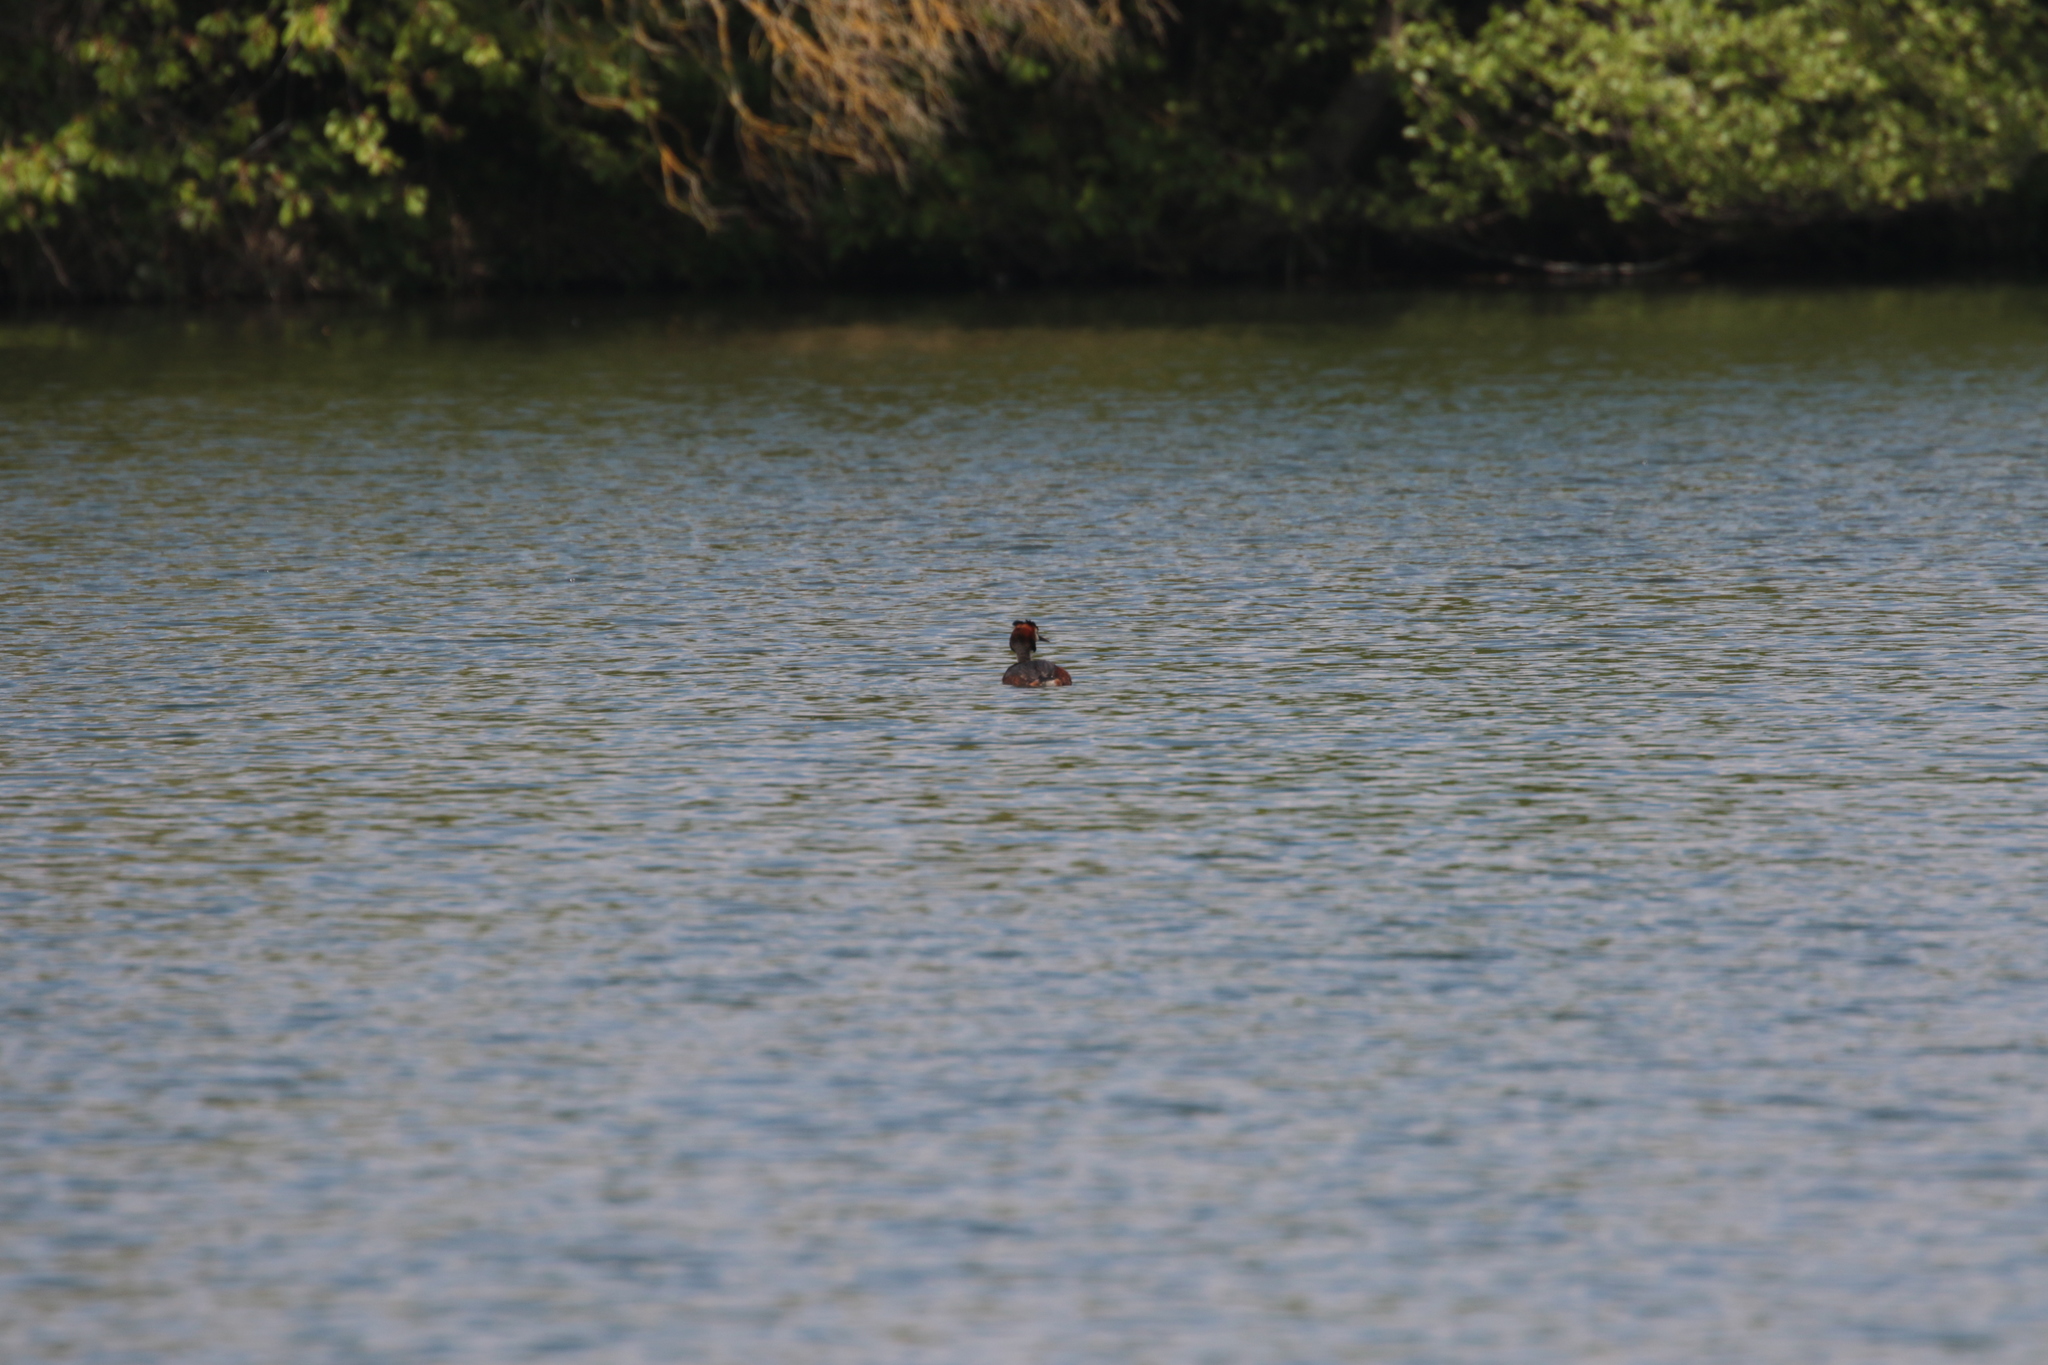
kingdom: Animalia
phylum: Chordata
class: Aves
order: Podicipediformes
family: Podicipedidae
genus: Podiceps
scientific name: Podiceps cristatus
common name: Great crested grebe
